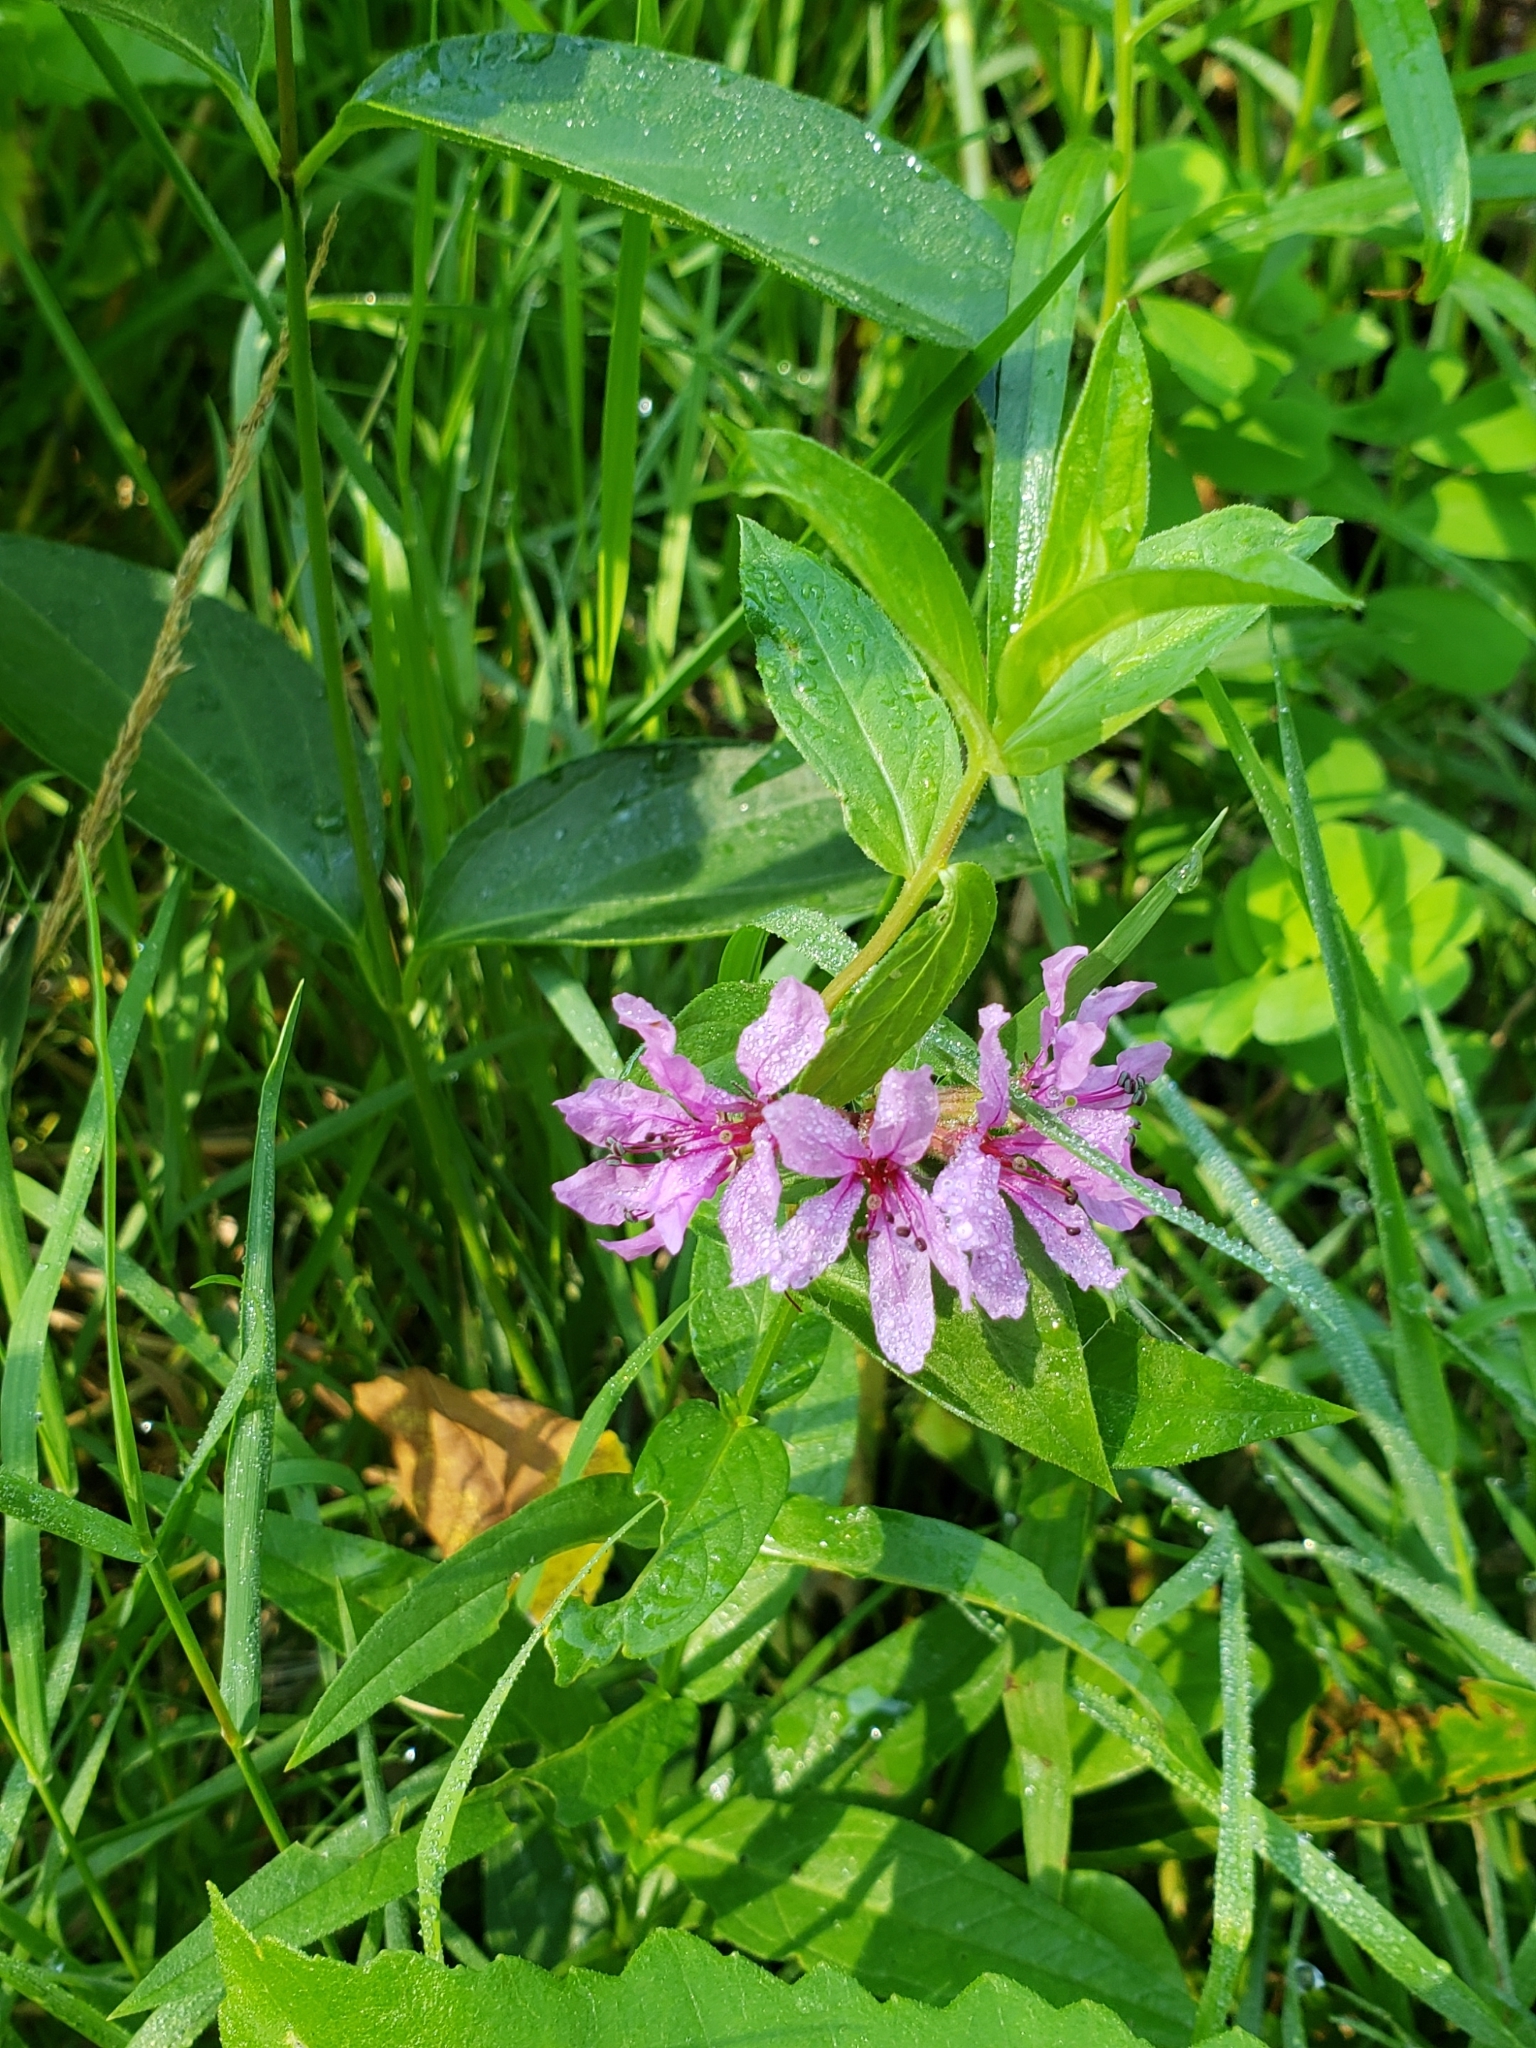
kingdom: Plantae
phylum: Tracheophyta
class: Magnoliopsida
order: Myrtales
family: Lythraceae
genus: Decodon
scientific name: Decodon verticillatus
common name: Hairy swamp loosestrife
